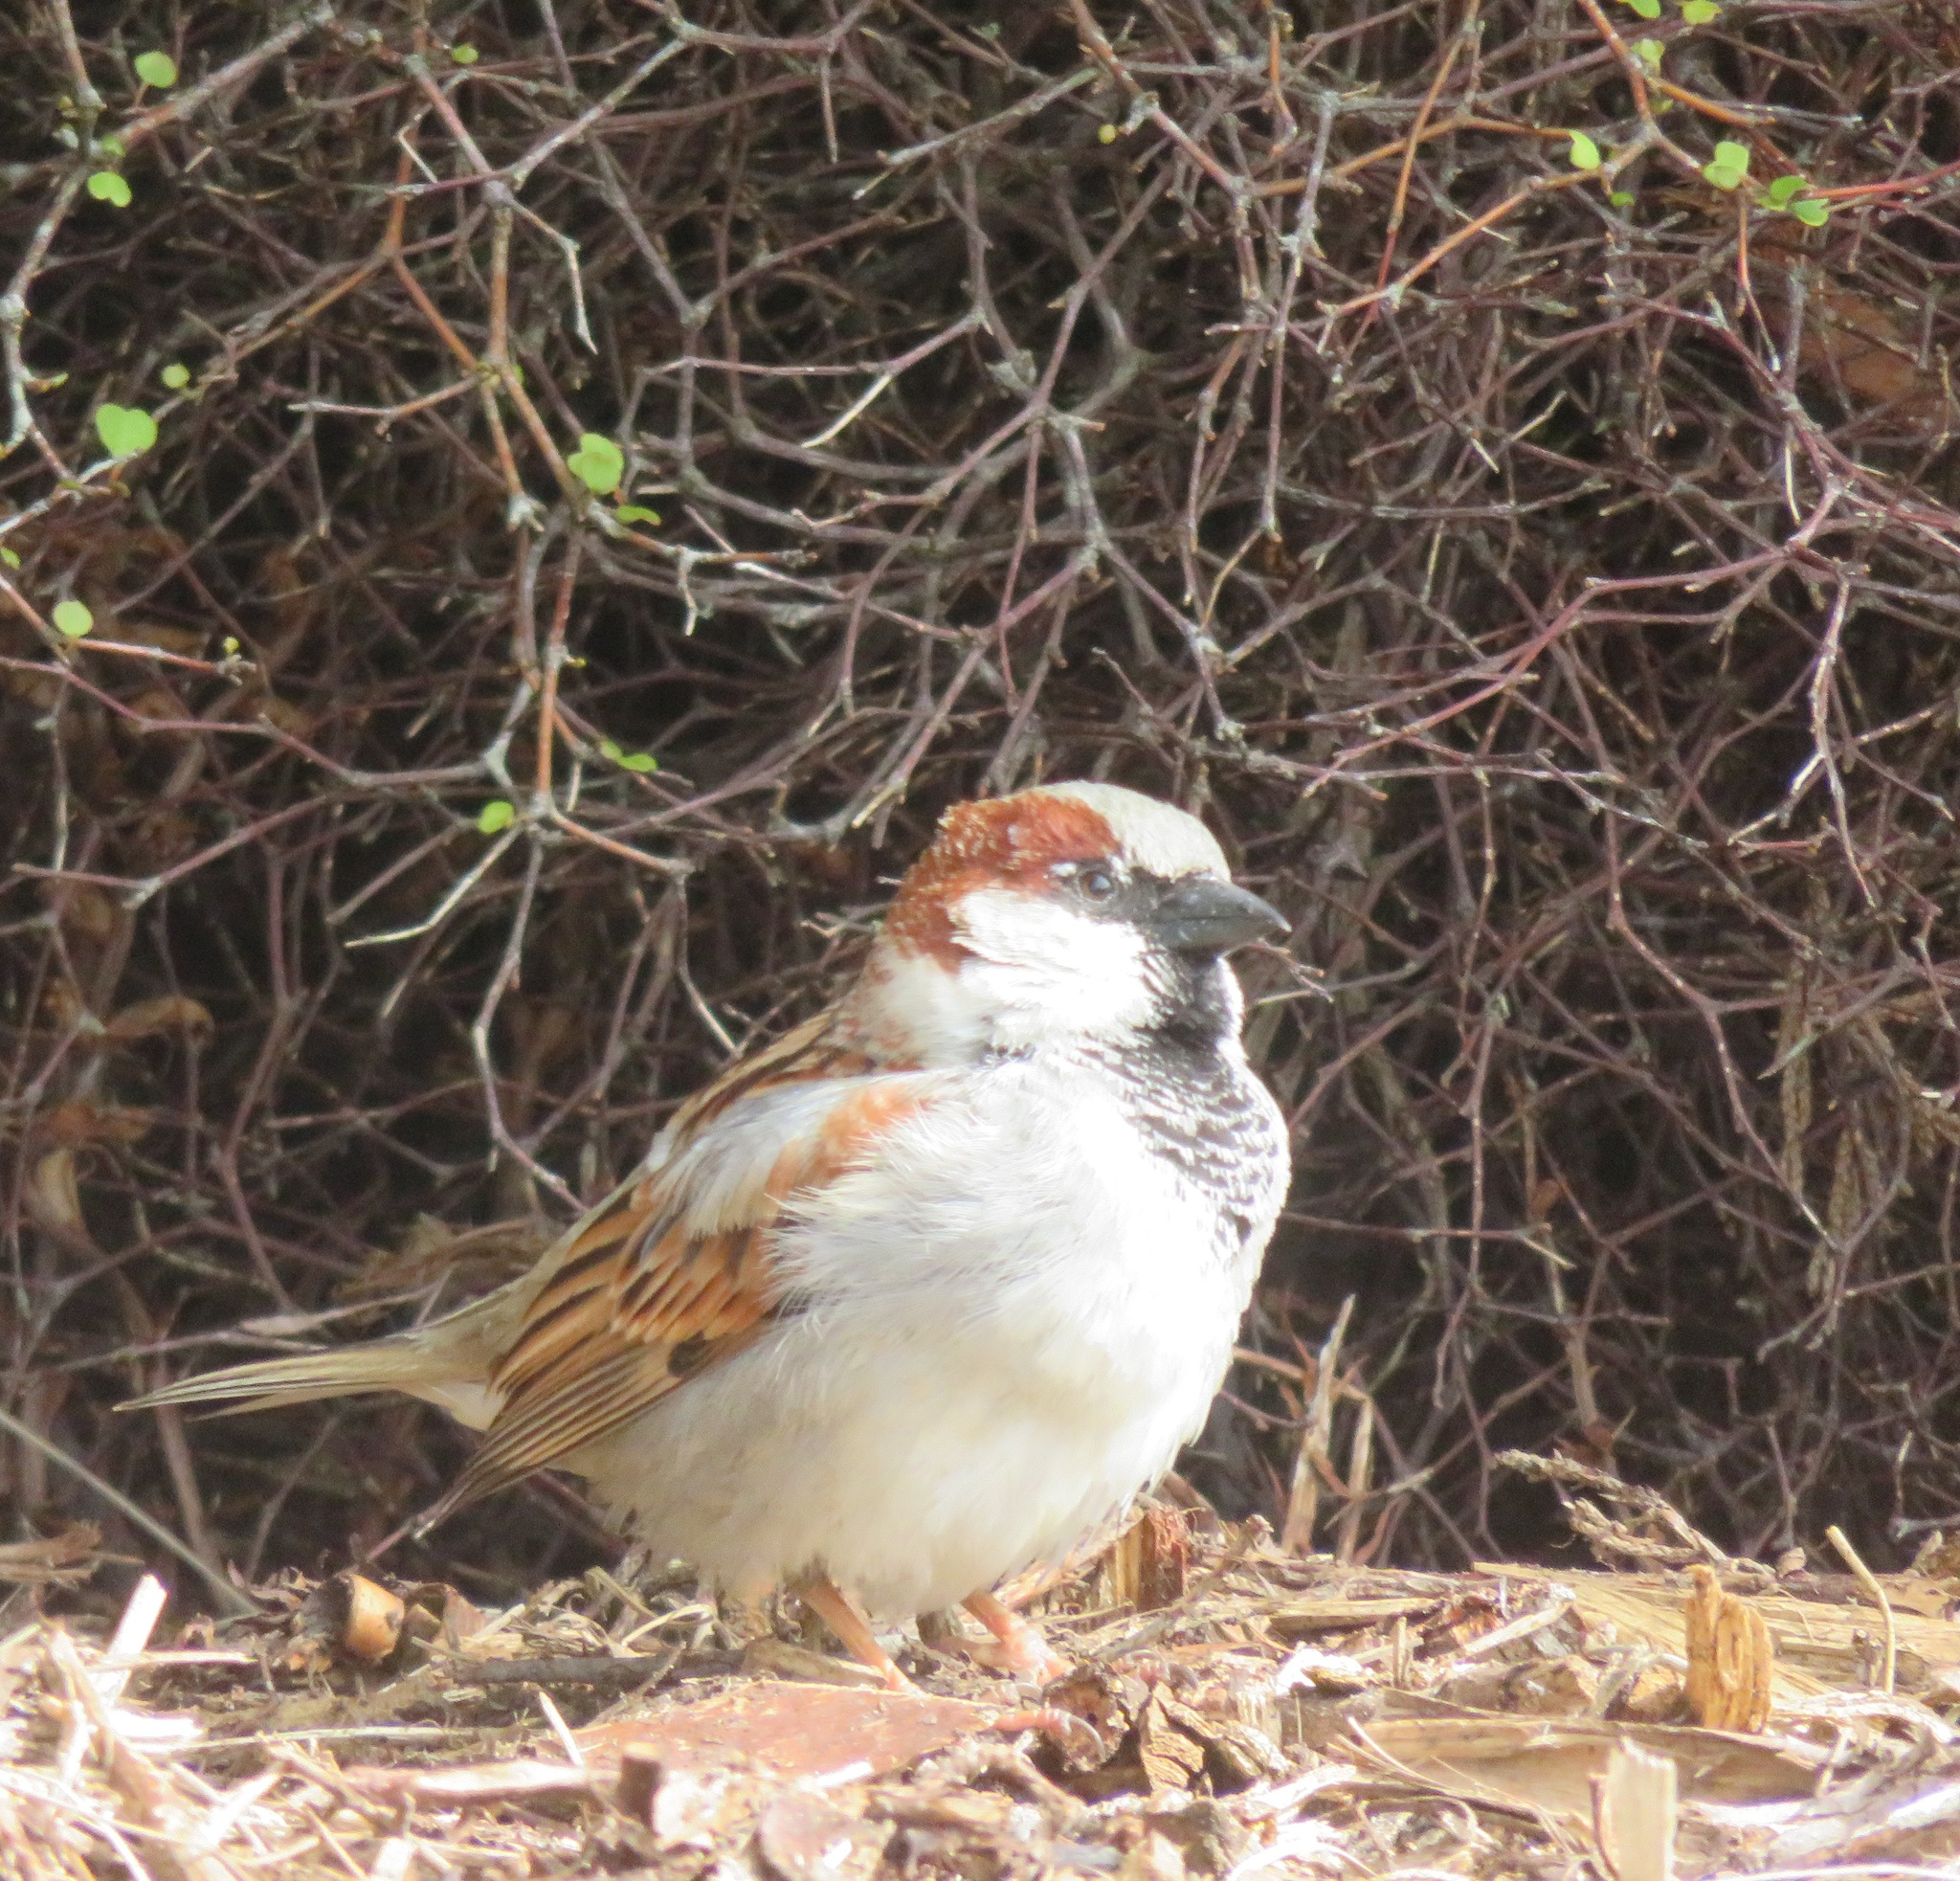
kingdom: Animalia
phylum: Chordata
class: Aves
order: Passeriformes
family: Passeridae
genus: Passer
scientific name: Passer domesticus
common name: House sparrow
